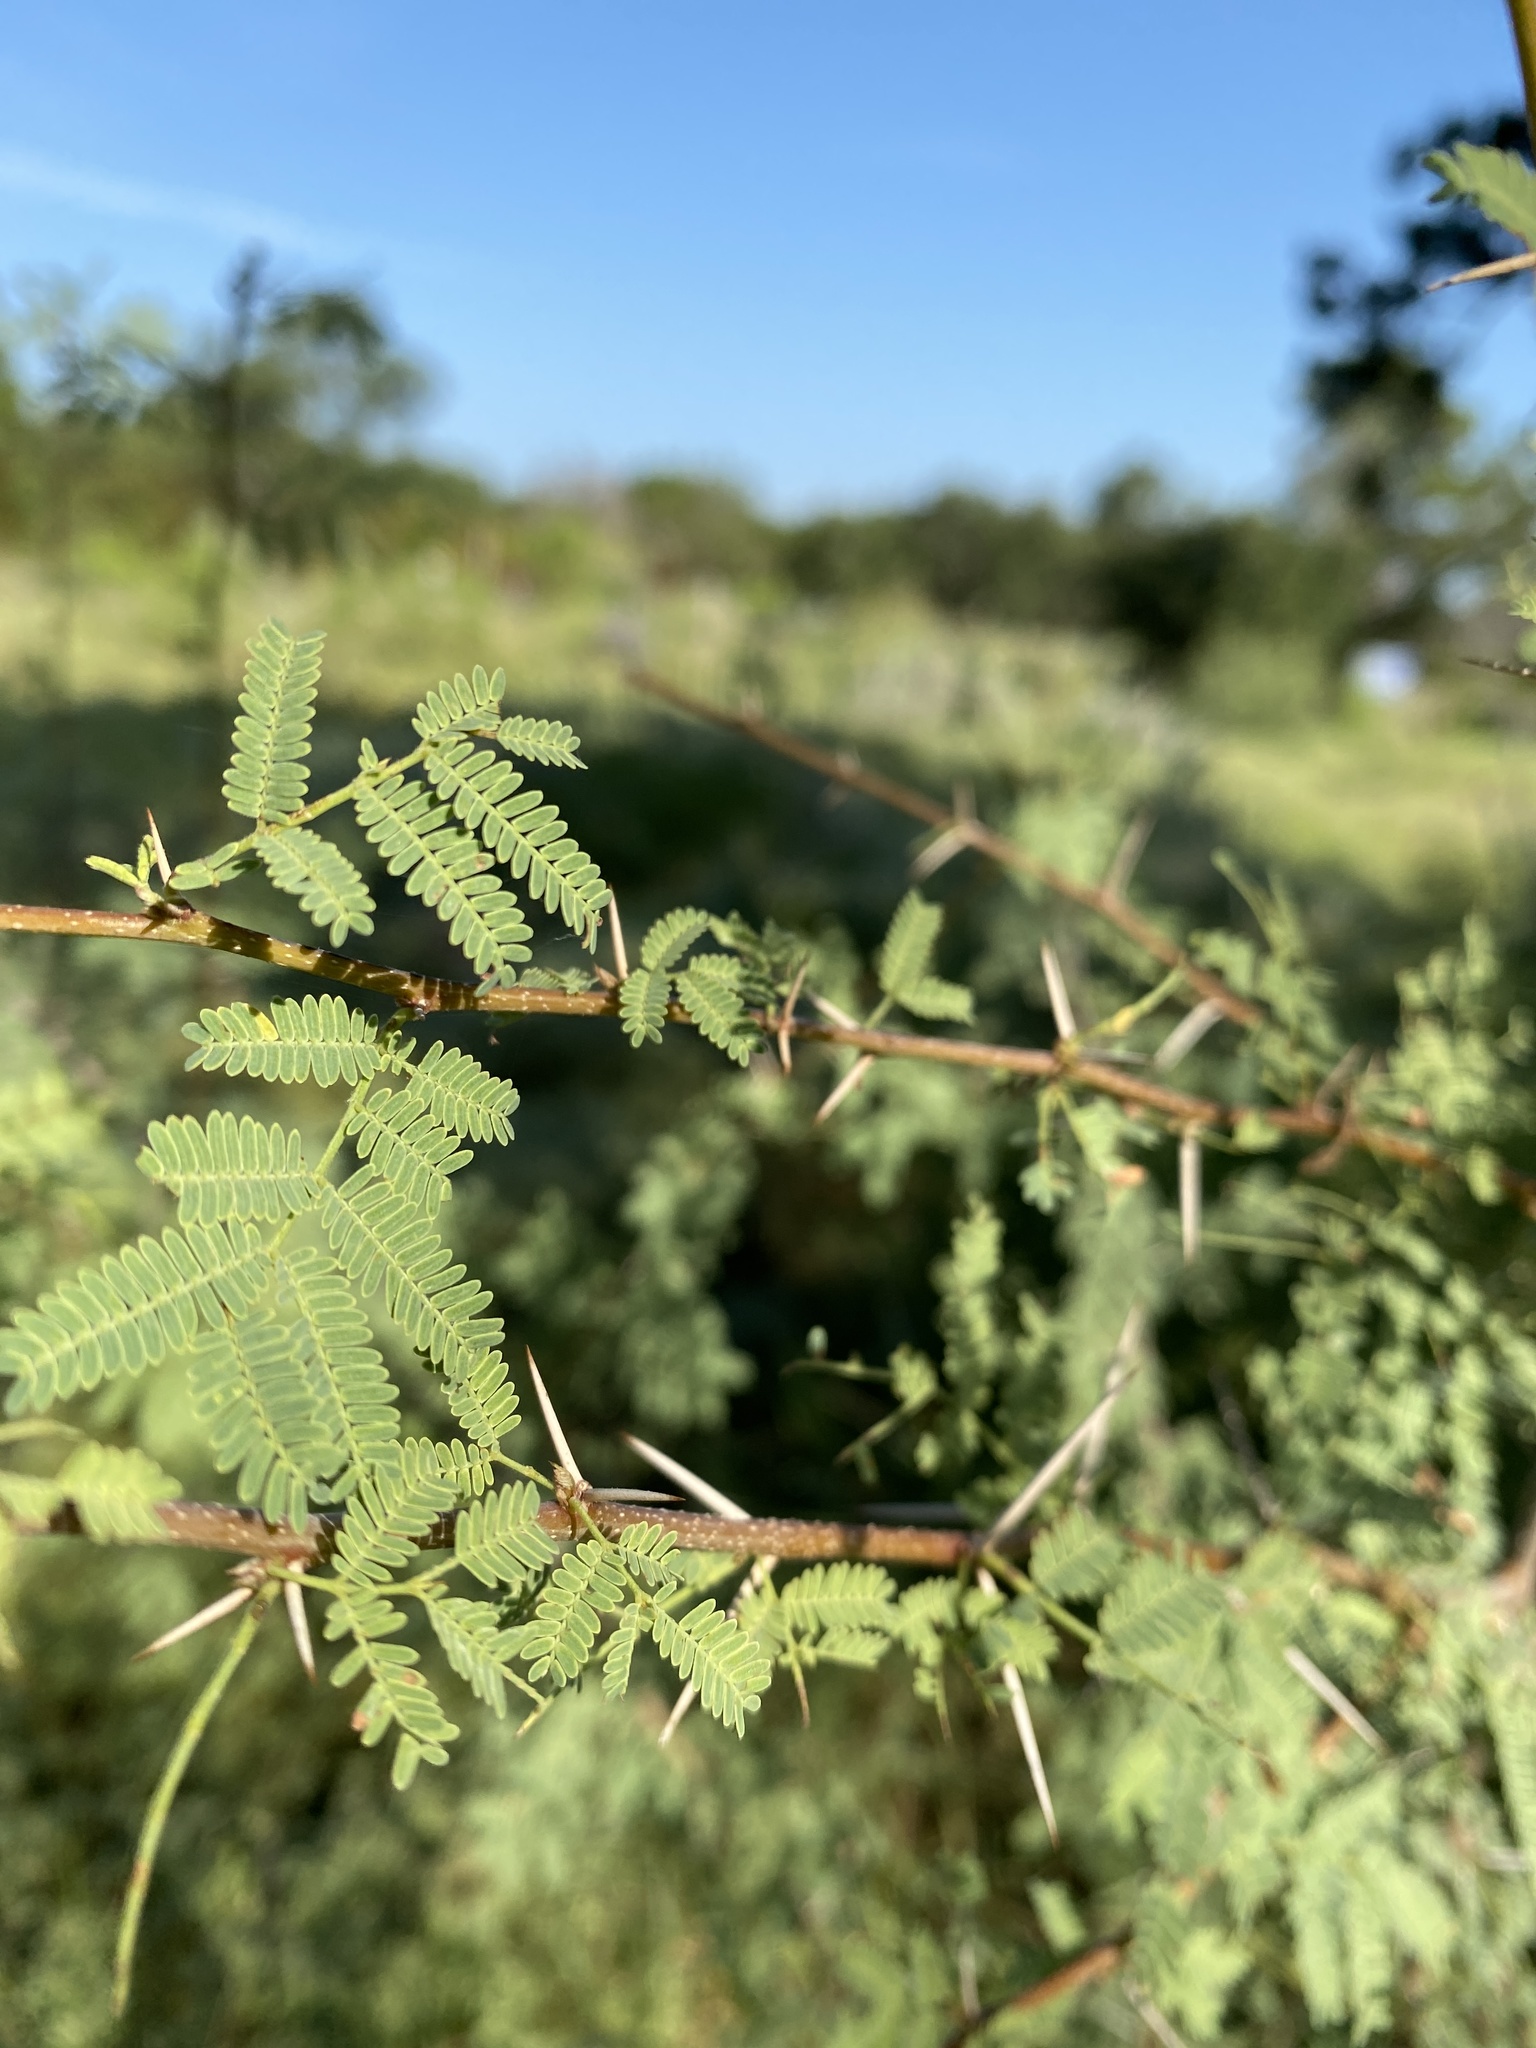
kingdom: Plantae
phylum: Tracheophyta
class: Magnoliopsida
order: Fabales
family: Fabaceae
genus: Vachellia
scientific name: Vachellia farnesiana
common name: Sweet acacia
